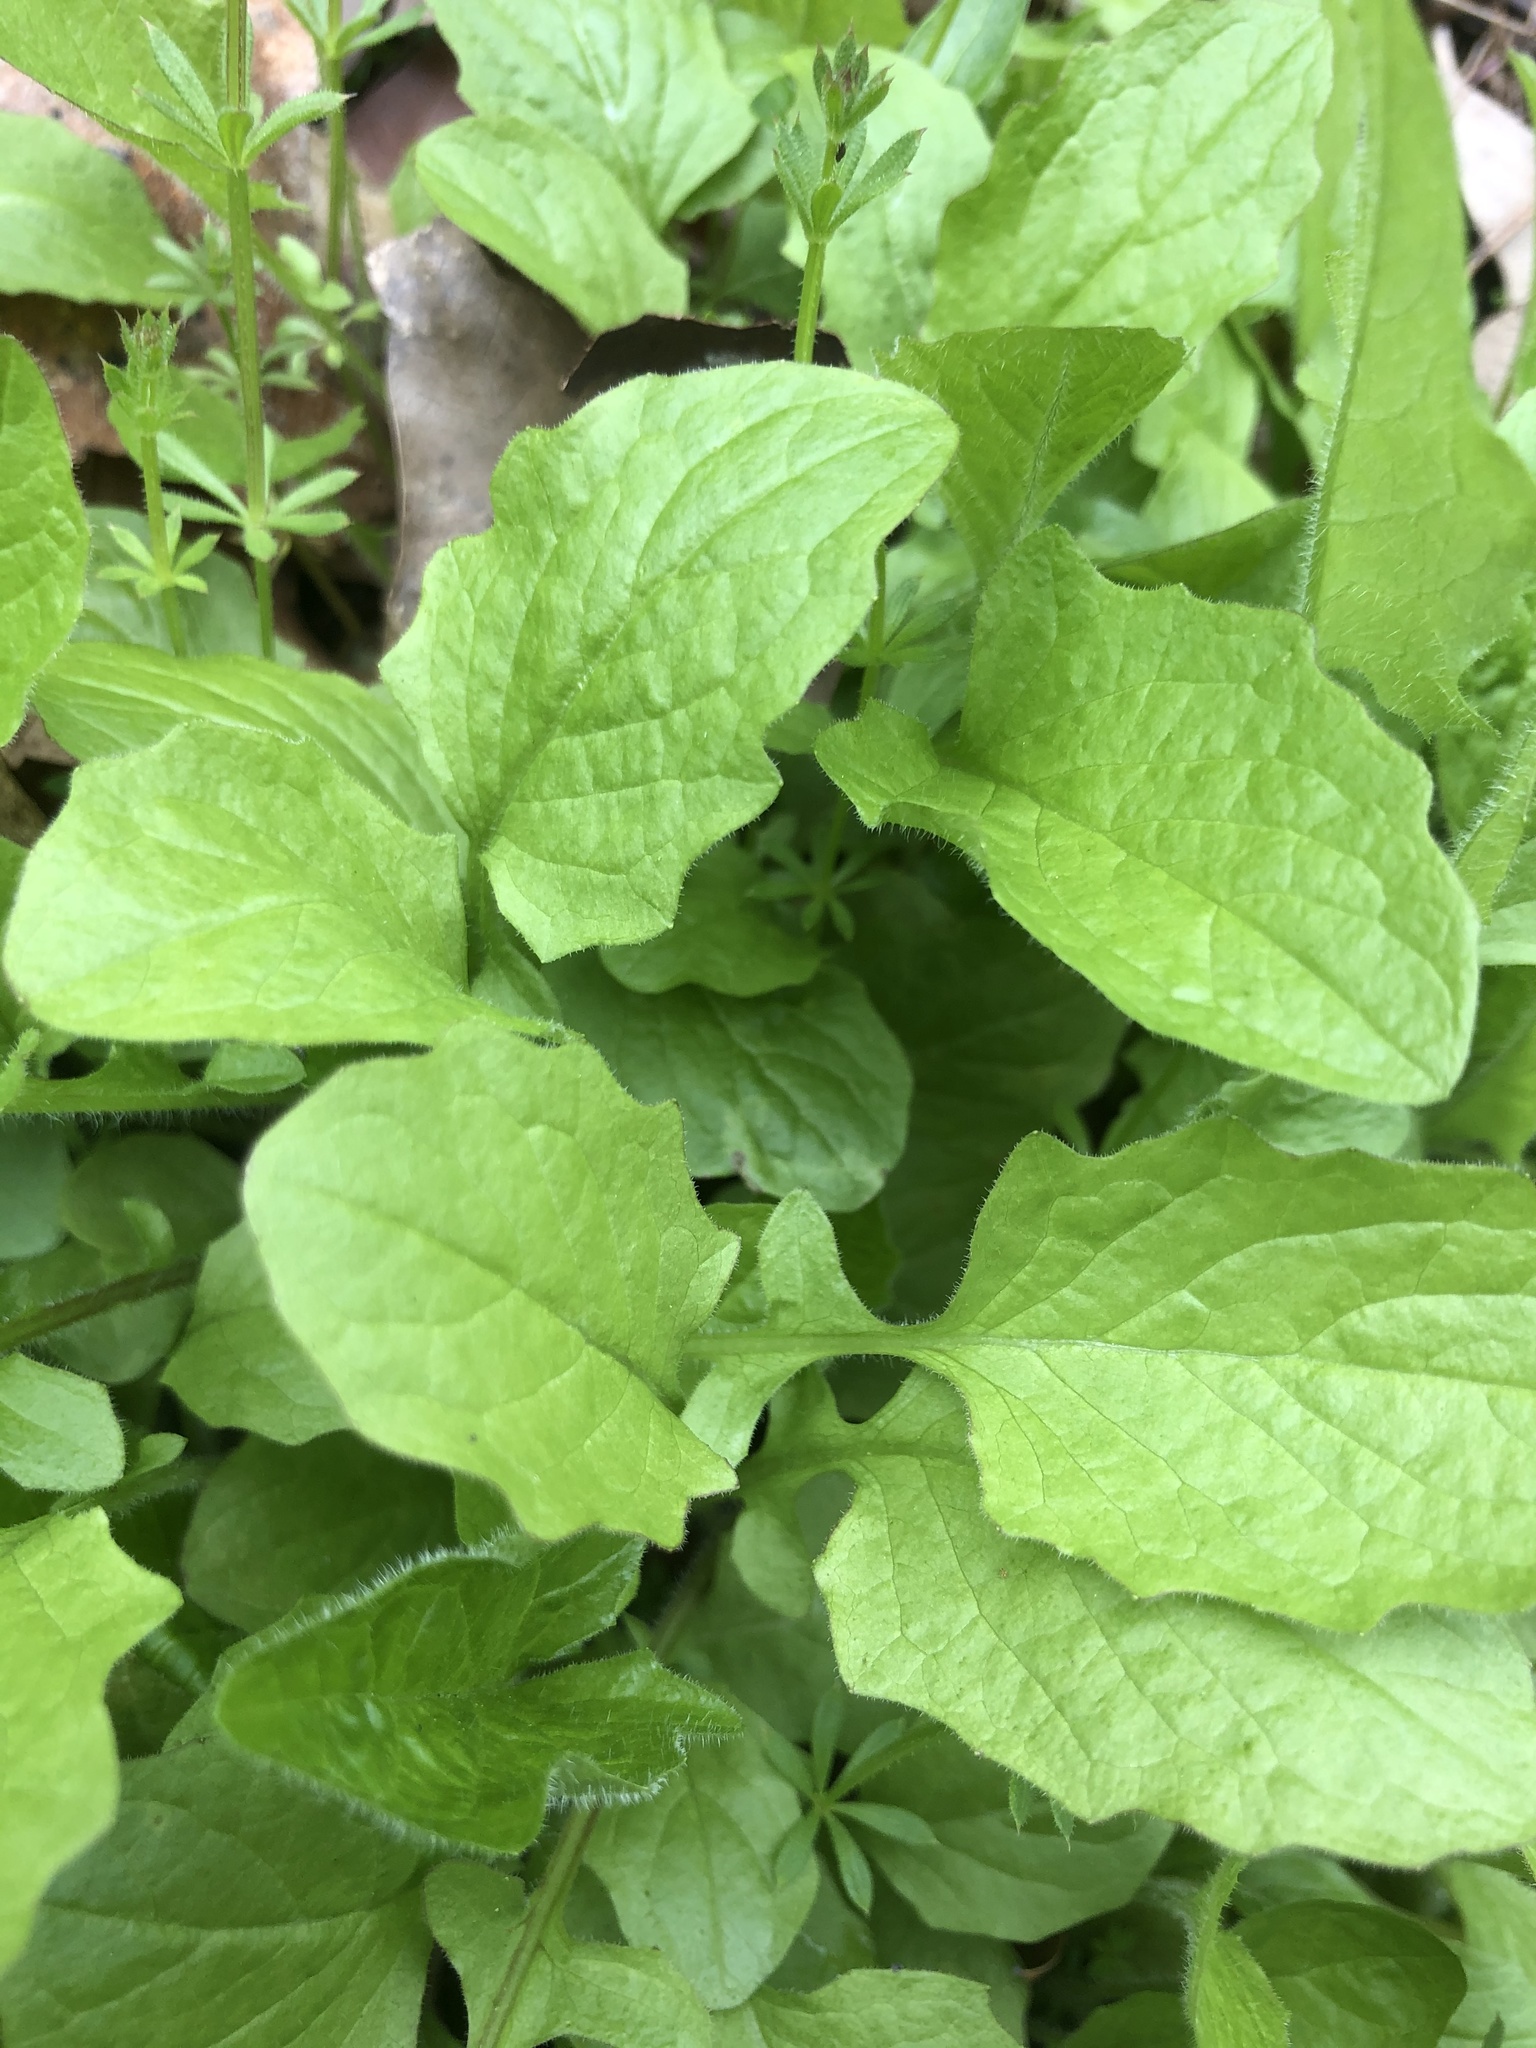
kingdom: Plantae
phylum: Tracheophyta
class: Magnoliopsida
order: Asterales
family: Asteraceae
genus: Lapsana
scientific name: Lapsana communis
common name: Nipplewort
